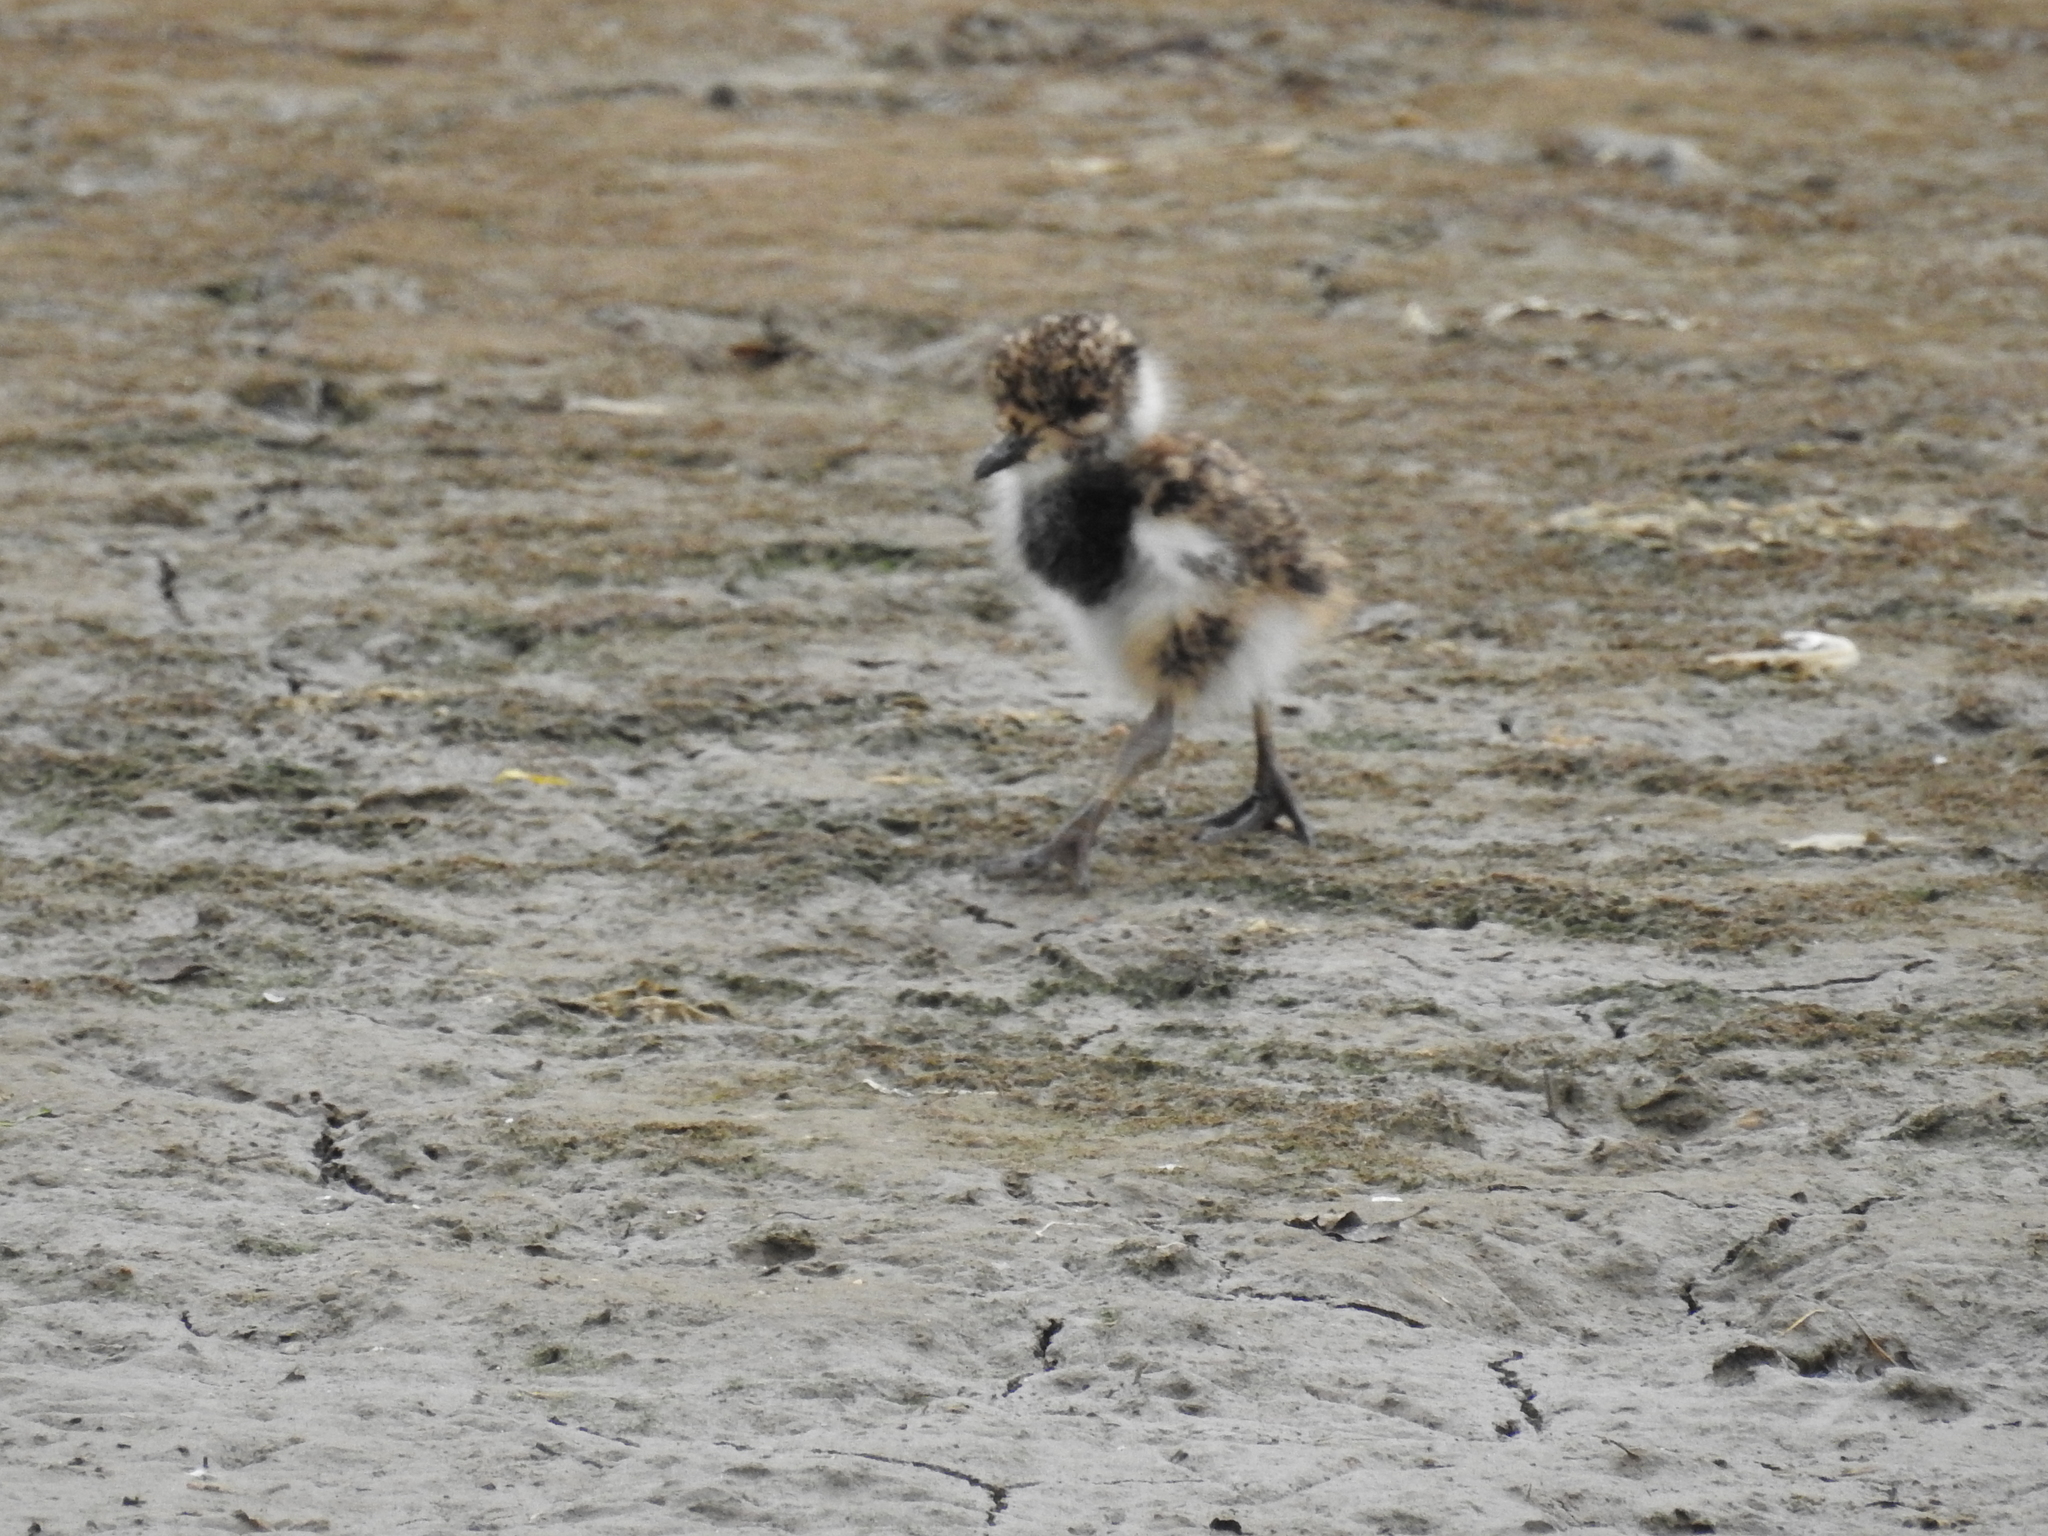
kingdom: Animalia
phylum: Chordata
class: Aves
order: Charadriiformes
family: Charadriidae
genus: Vanellus
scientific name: Vanellus chilensis
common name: Southern lapwing
